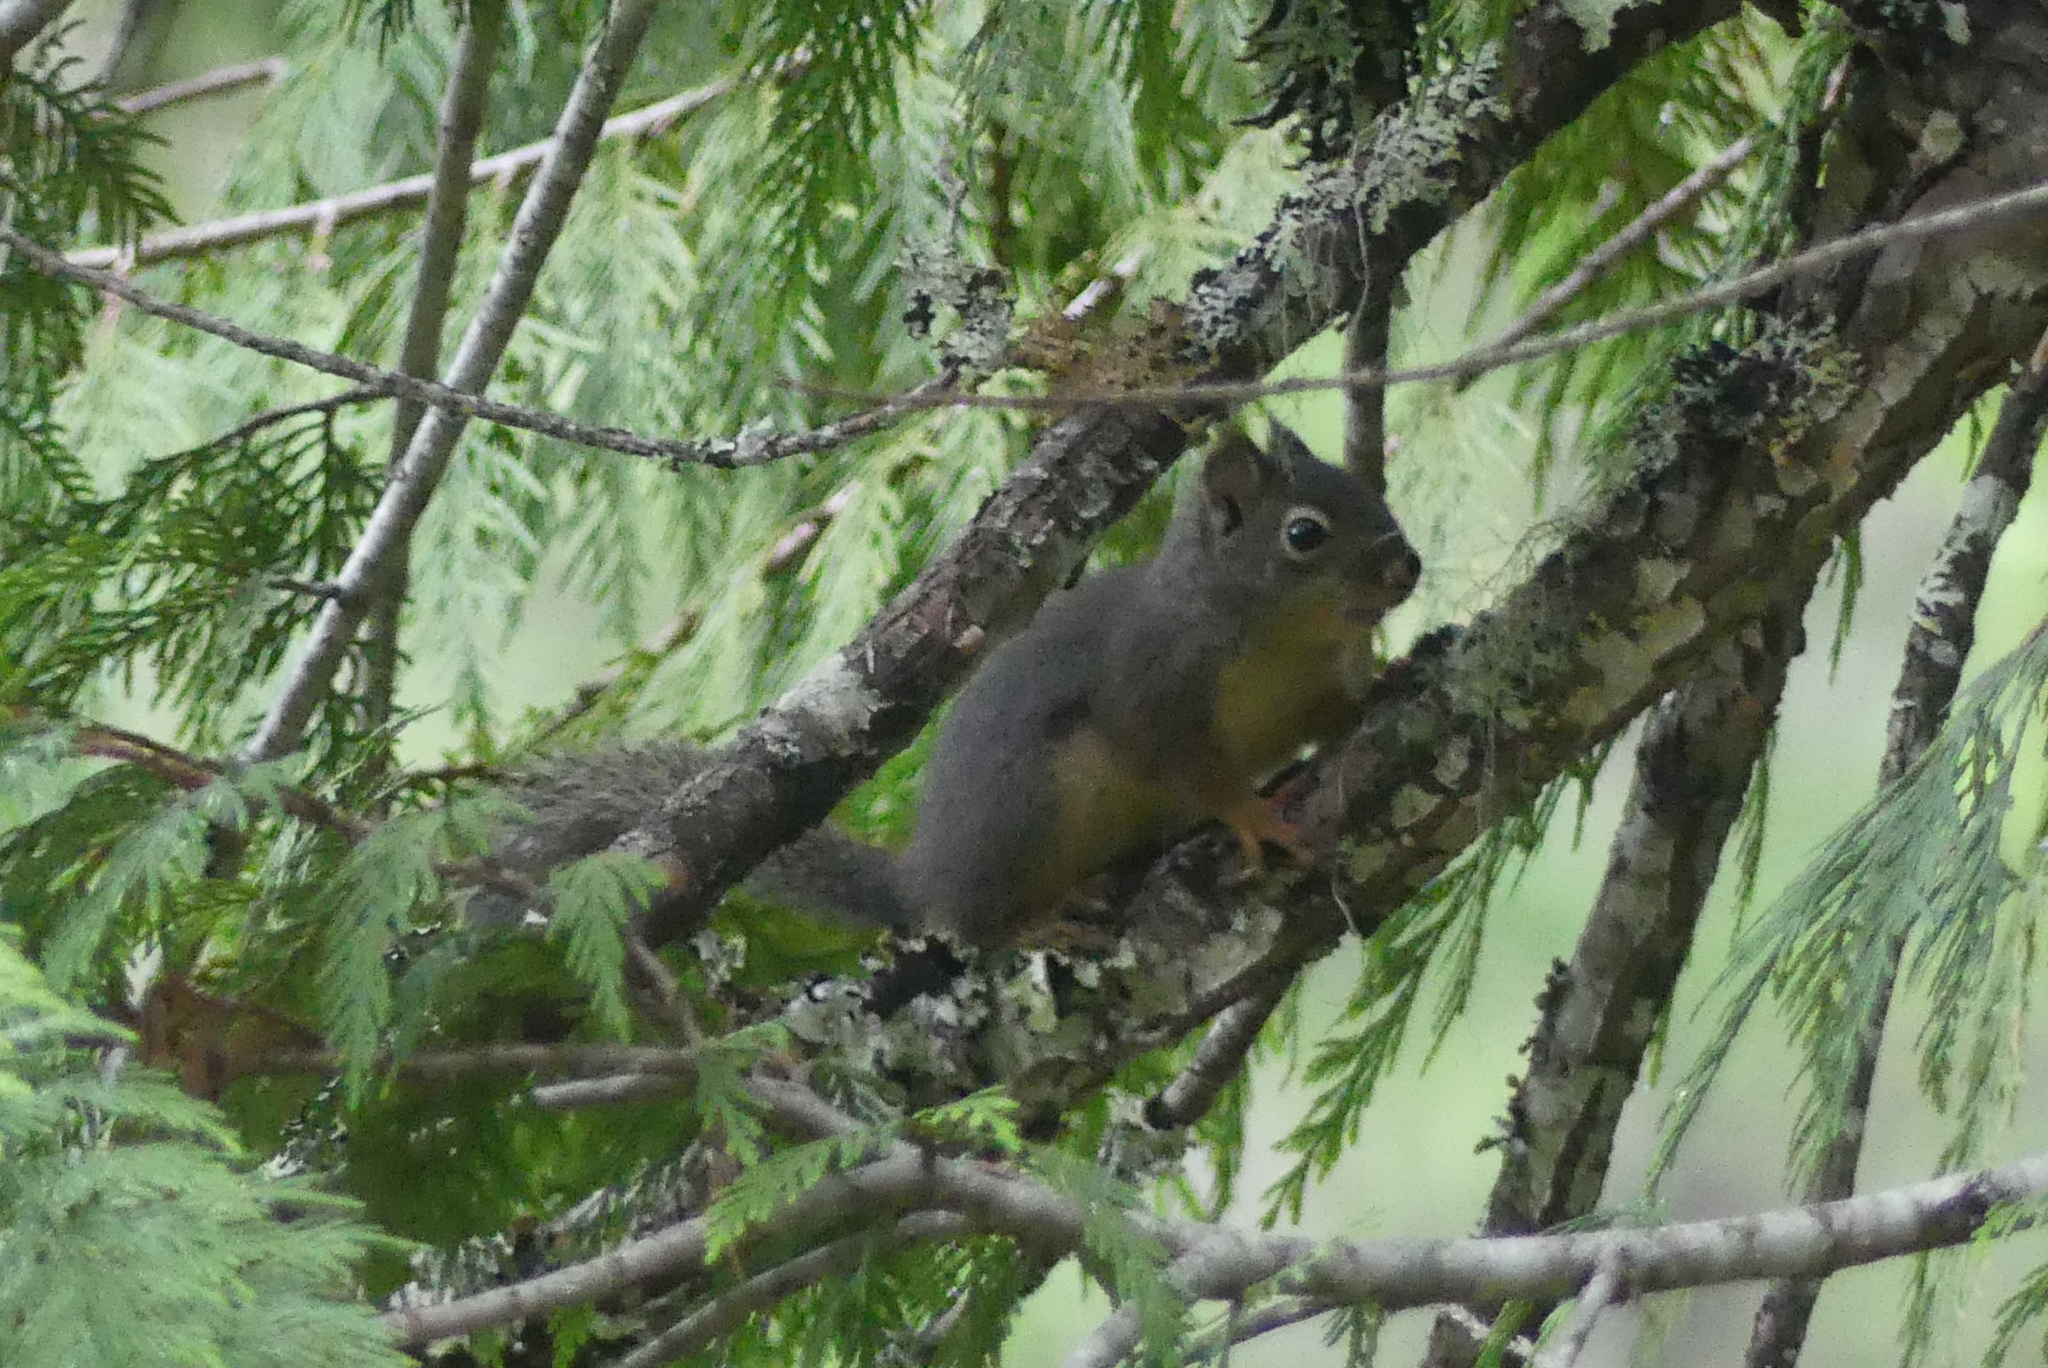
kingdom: Animalia
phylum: Chordata
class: Mammalia
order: Rodentia
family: Sciuridae
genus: Tamiasciurus
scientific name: Tamiasciurus douglasii
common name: Douglas's squirrel
